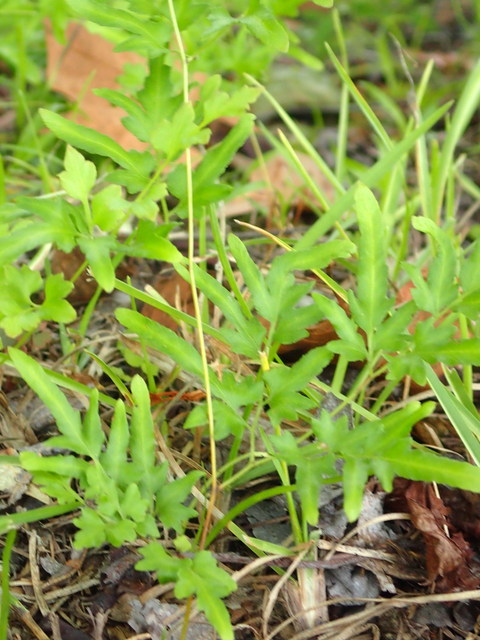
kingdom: Plantae
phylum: Tracheophyta
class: Polypodiopsida
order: Schizaeales
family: Lygodiaceae
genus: Lygodium
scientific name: Lygodium japonicum
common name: Japanese climbing fern
